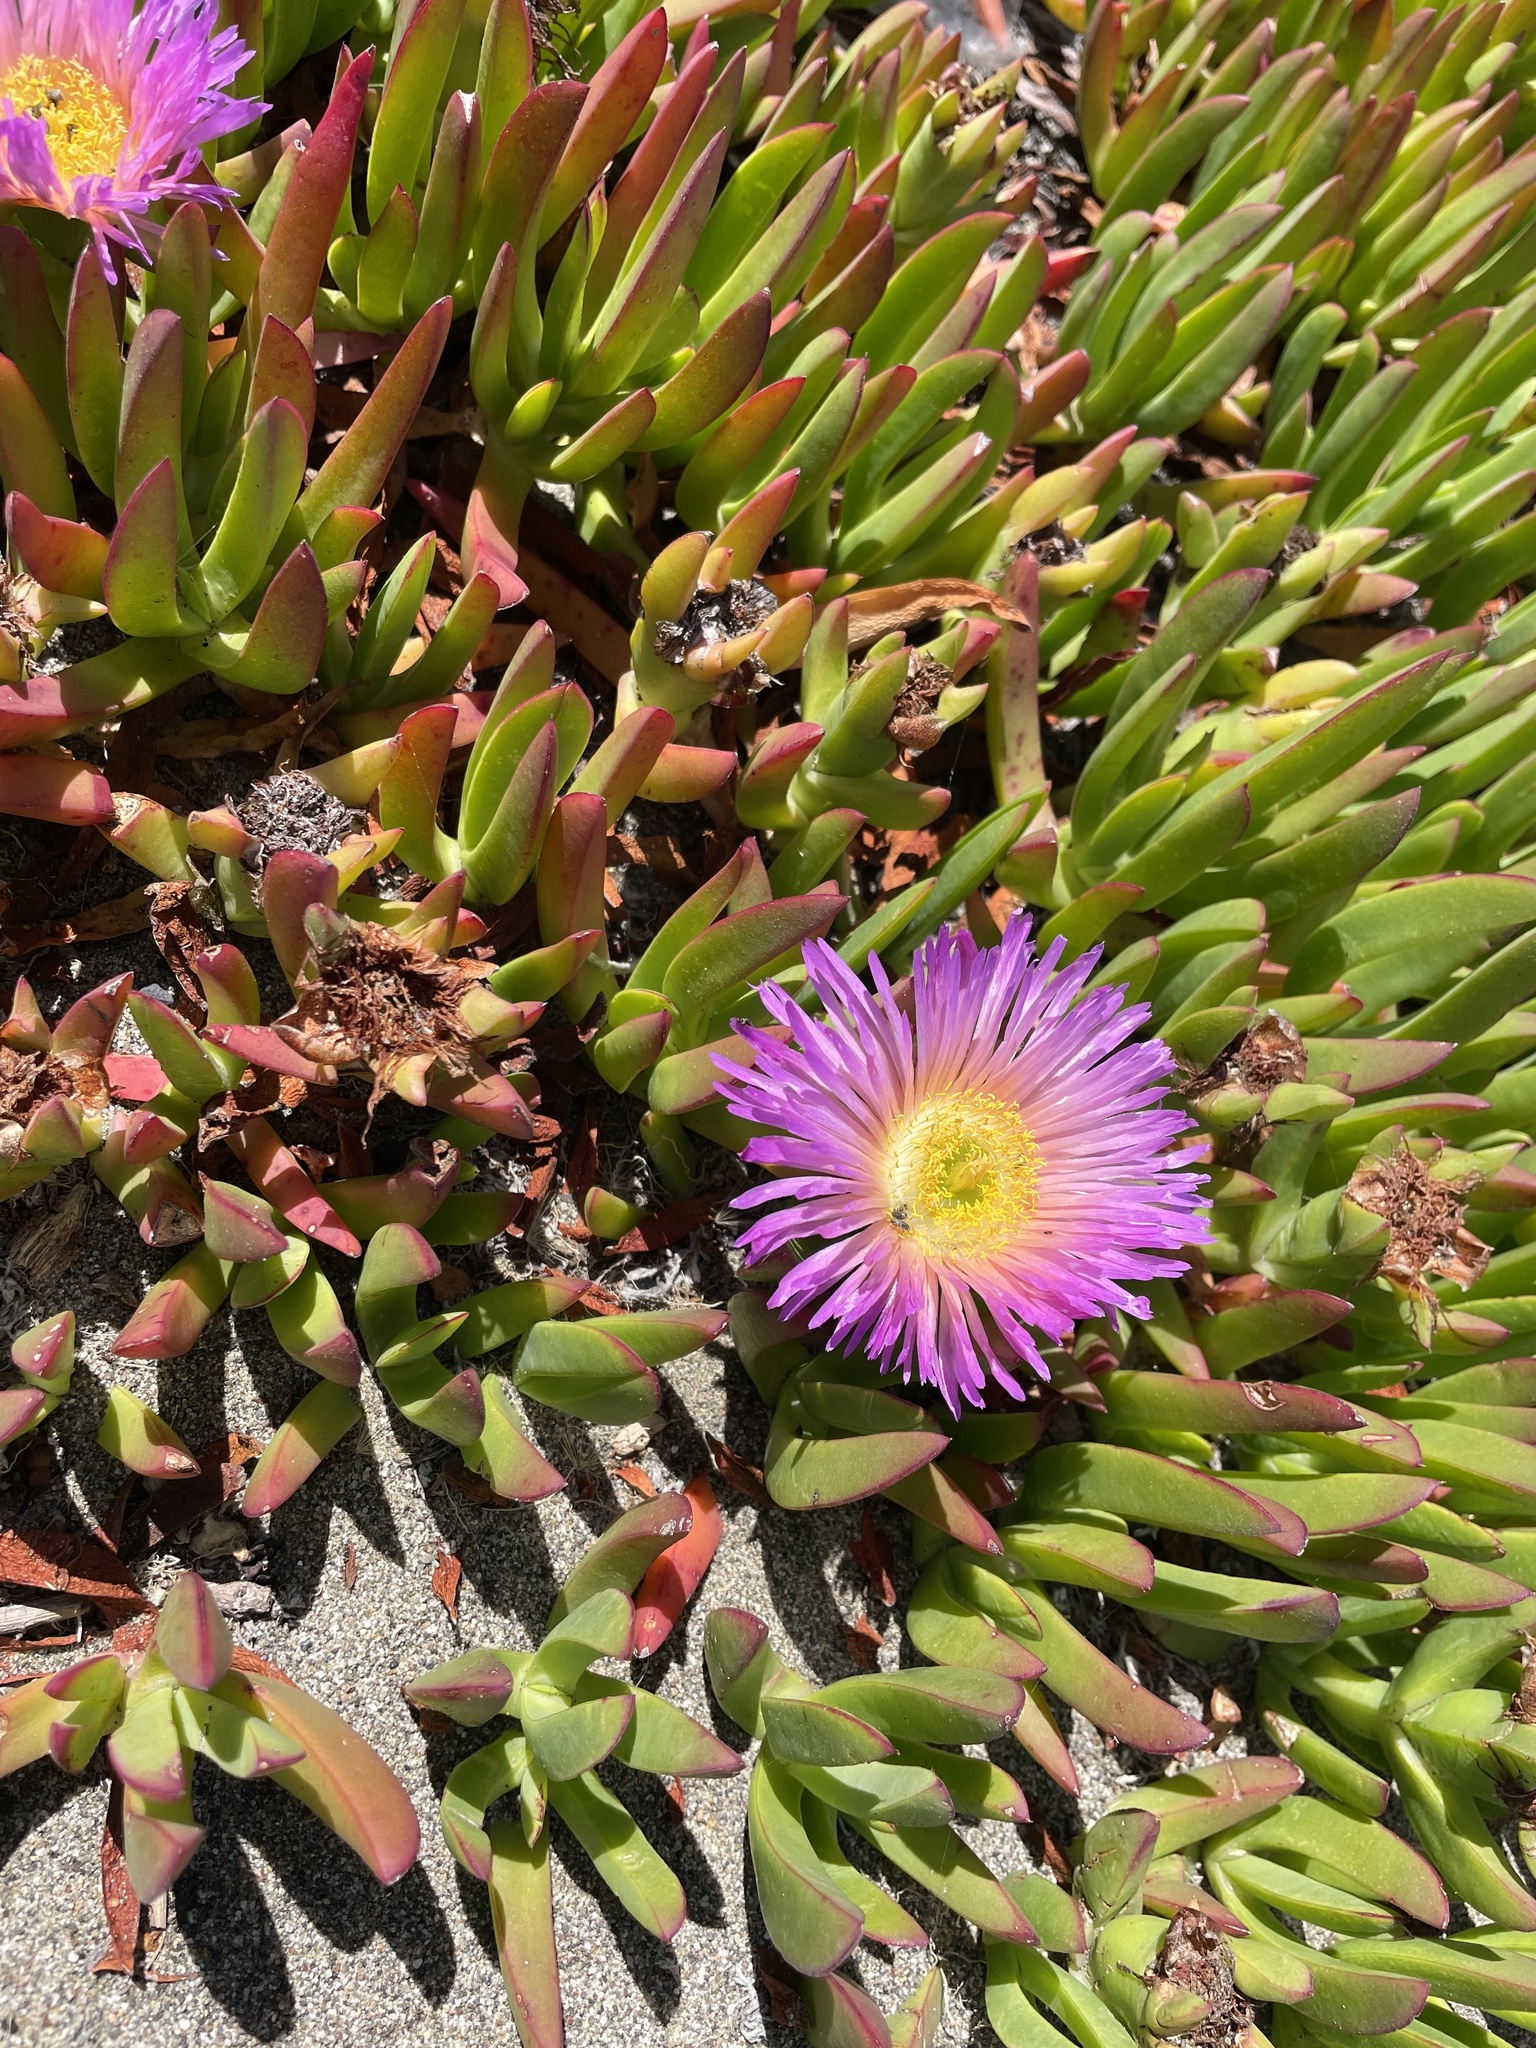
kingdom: Plantae
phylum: Tracheophyta
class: Magnoliopsida
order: Caryophyllales
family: Aizoaceae
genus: Carpobrotus
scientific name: Carpobrotus chilensis
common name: Sea fig
